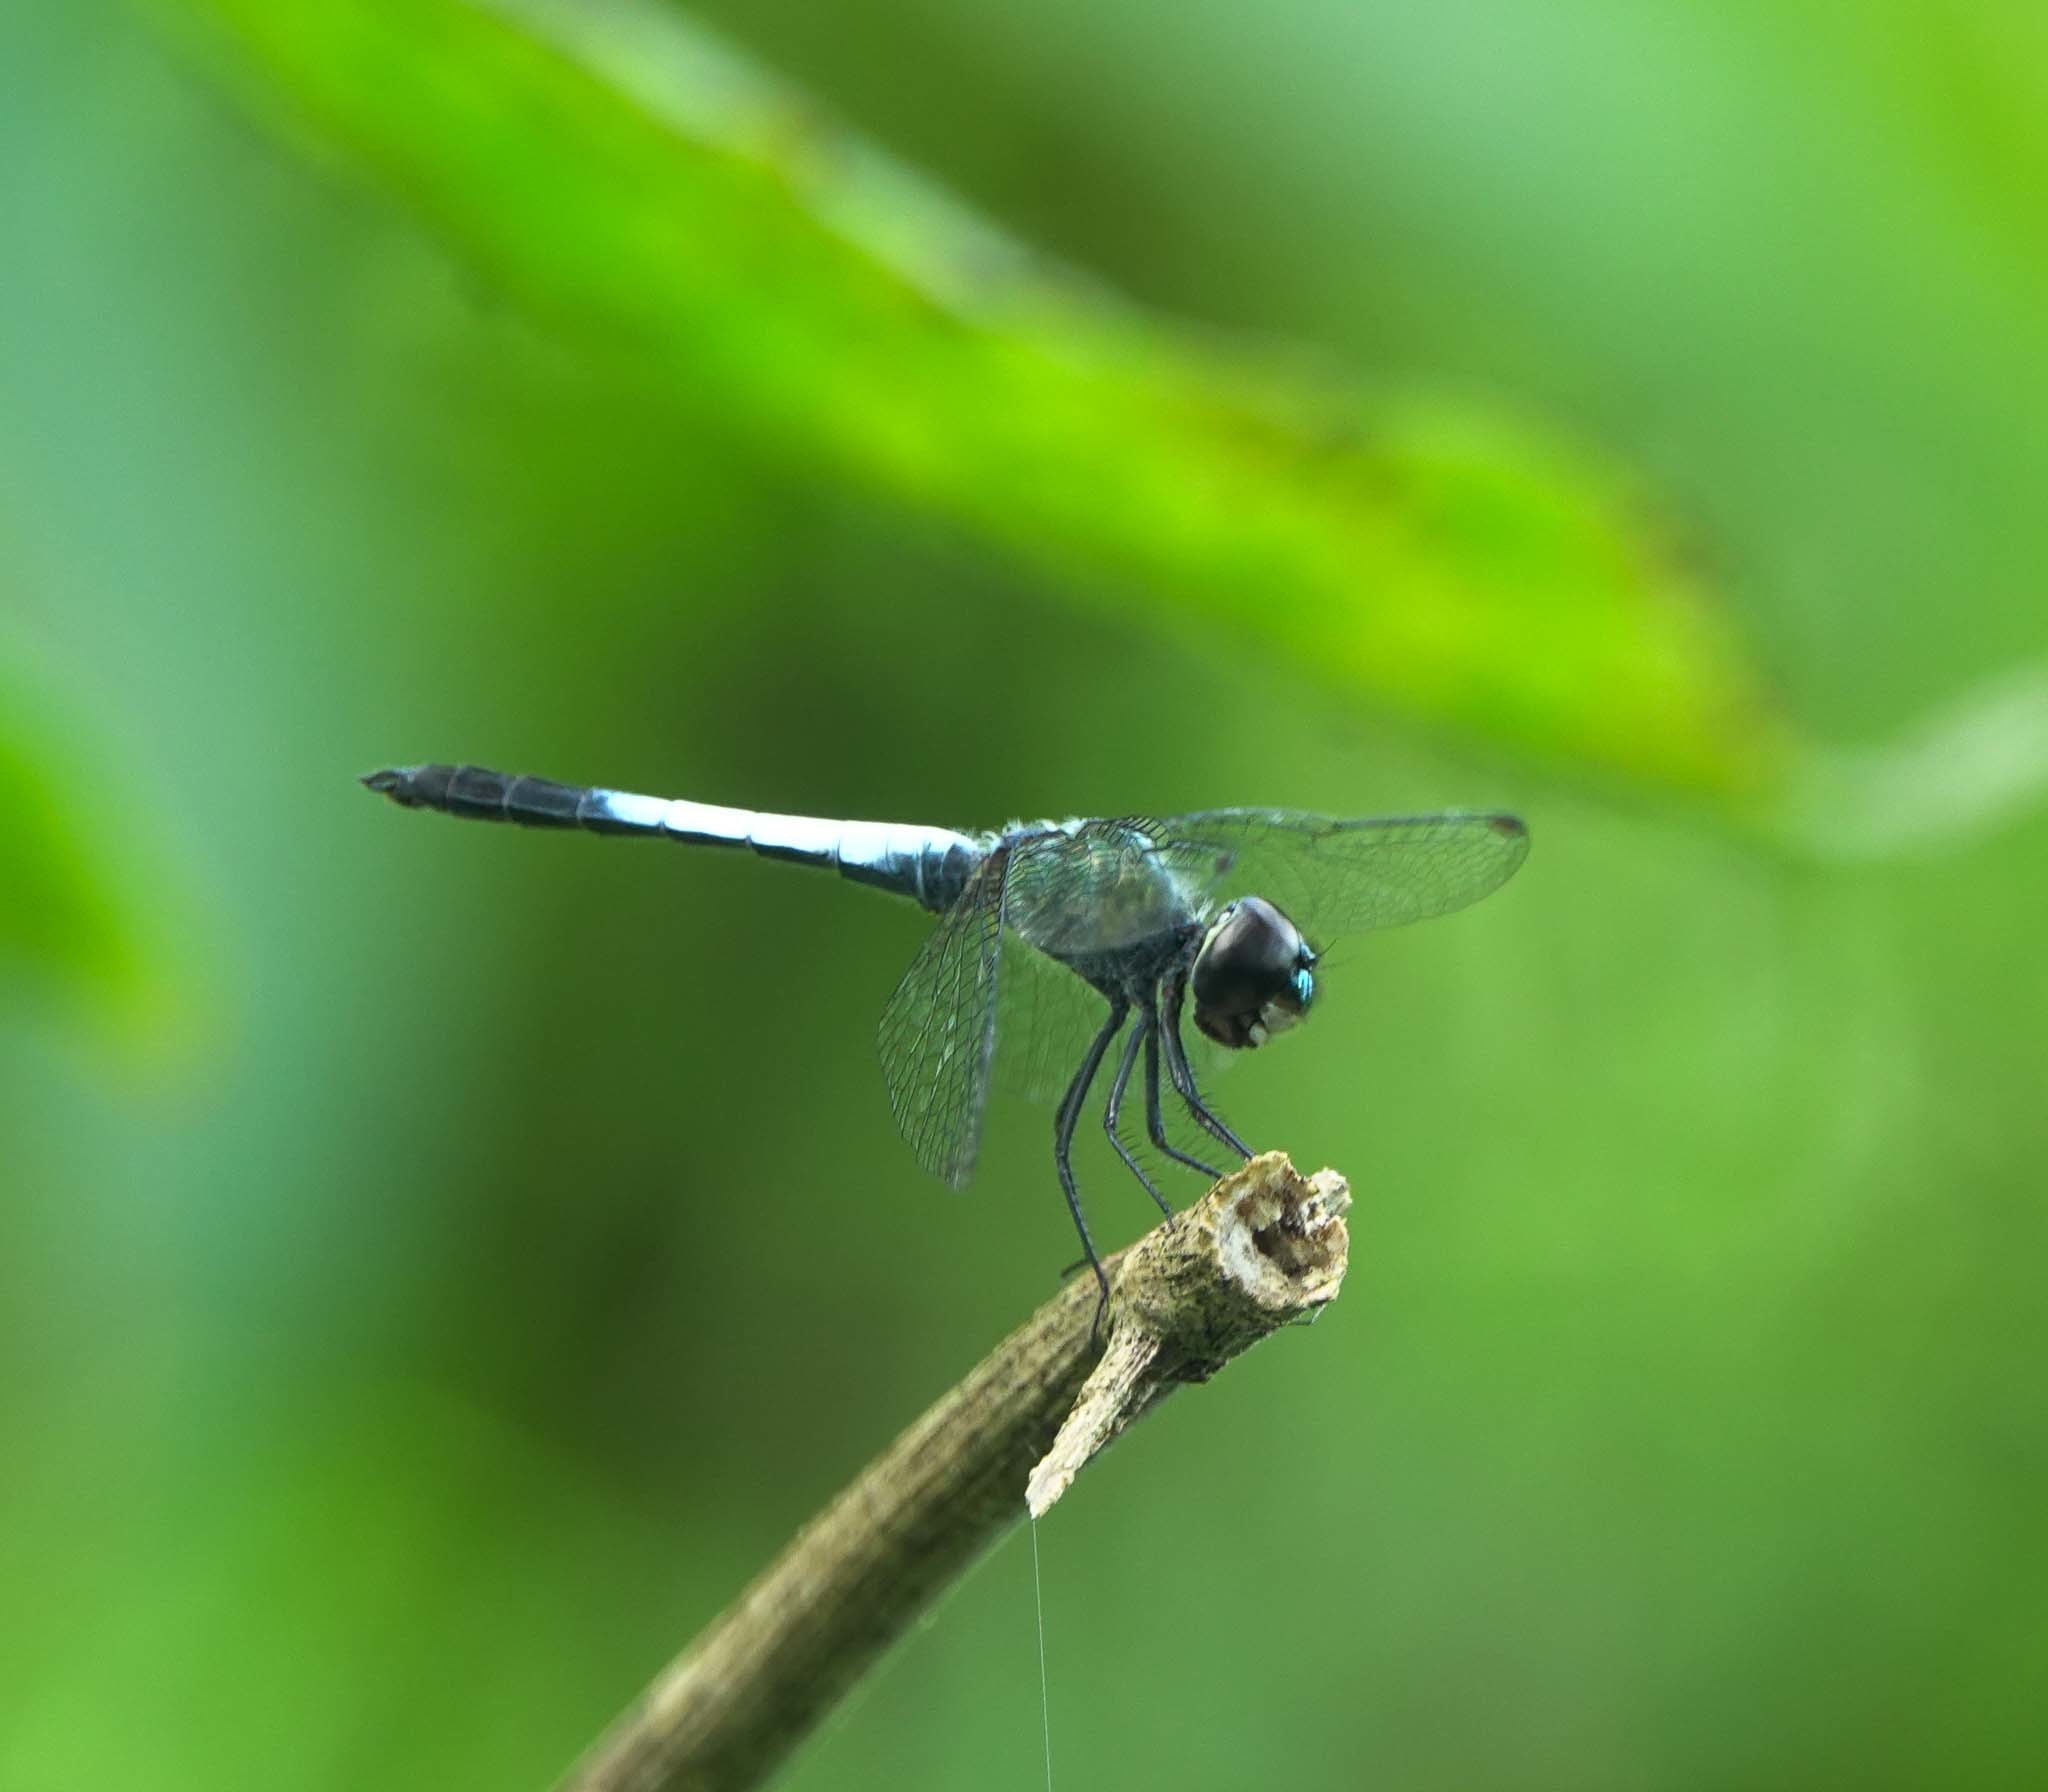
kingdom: Animalia
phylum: Arthropoda
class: Insecta
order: Odonata
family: Libellulidae
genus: Brachydiplax
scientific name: Brachydiplax farinosa
